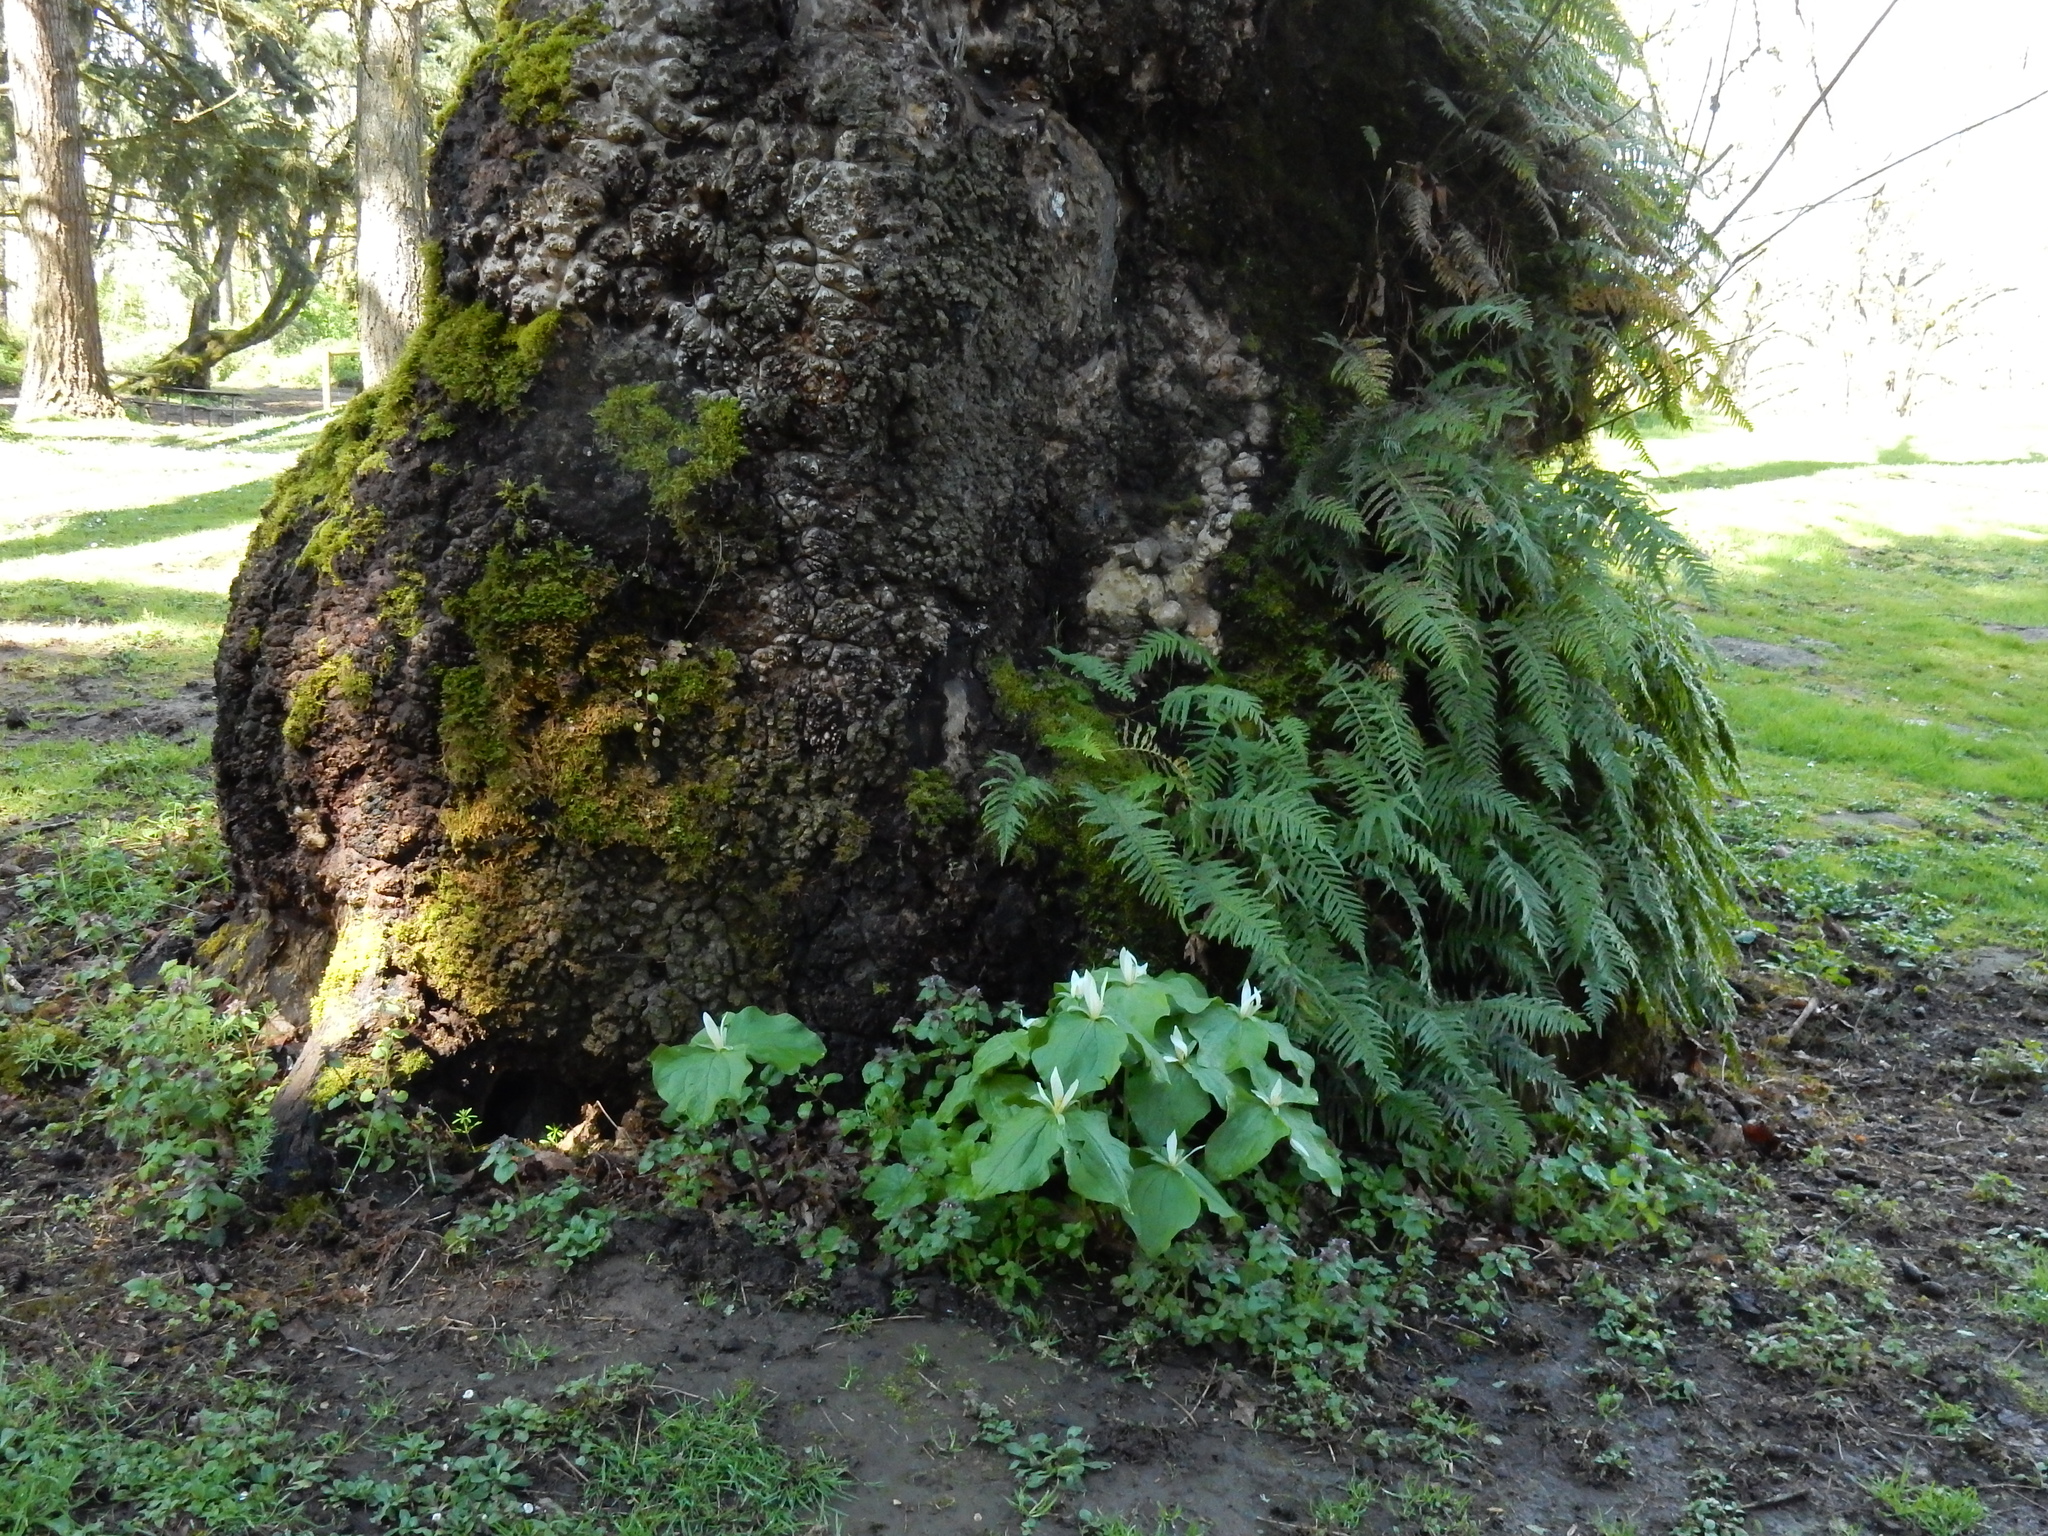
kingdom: Plantae
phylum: Tracheophyta
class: Liliopsida
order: Liliales
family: Melanthiaceae
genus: Trillium
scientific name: Trillium albidum
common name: Freeman's trillium
